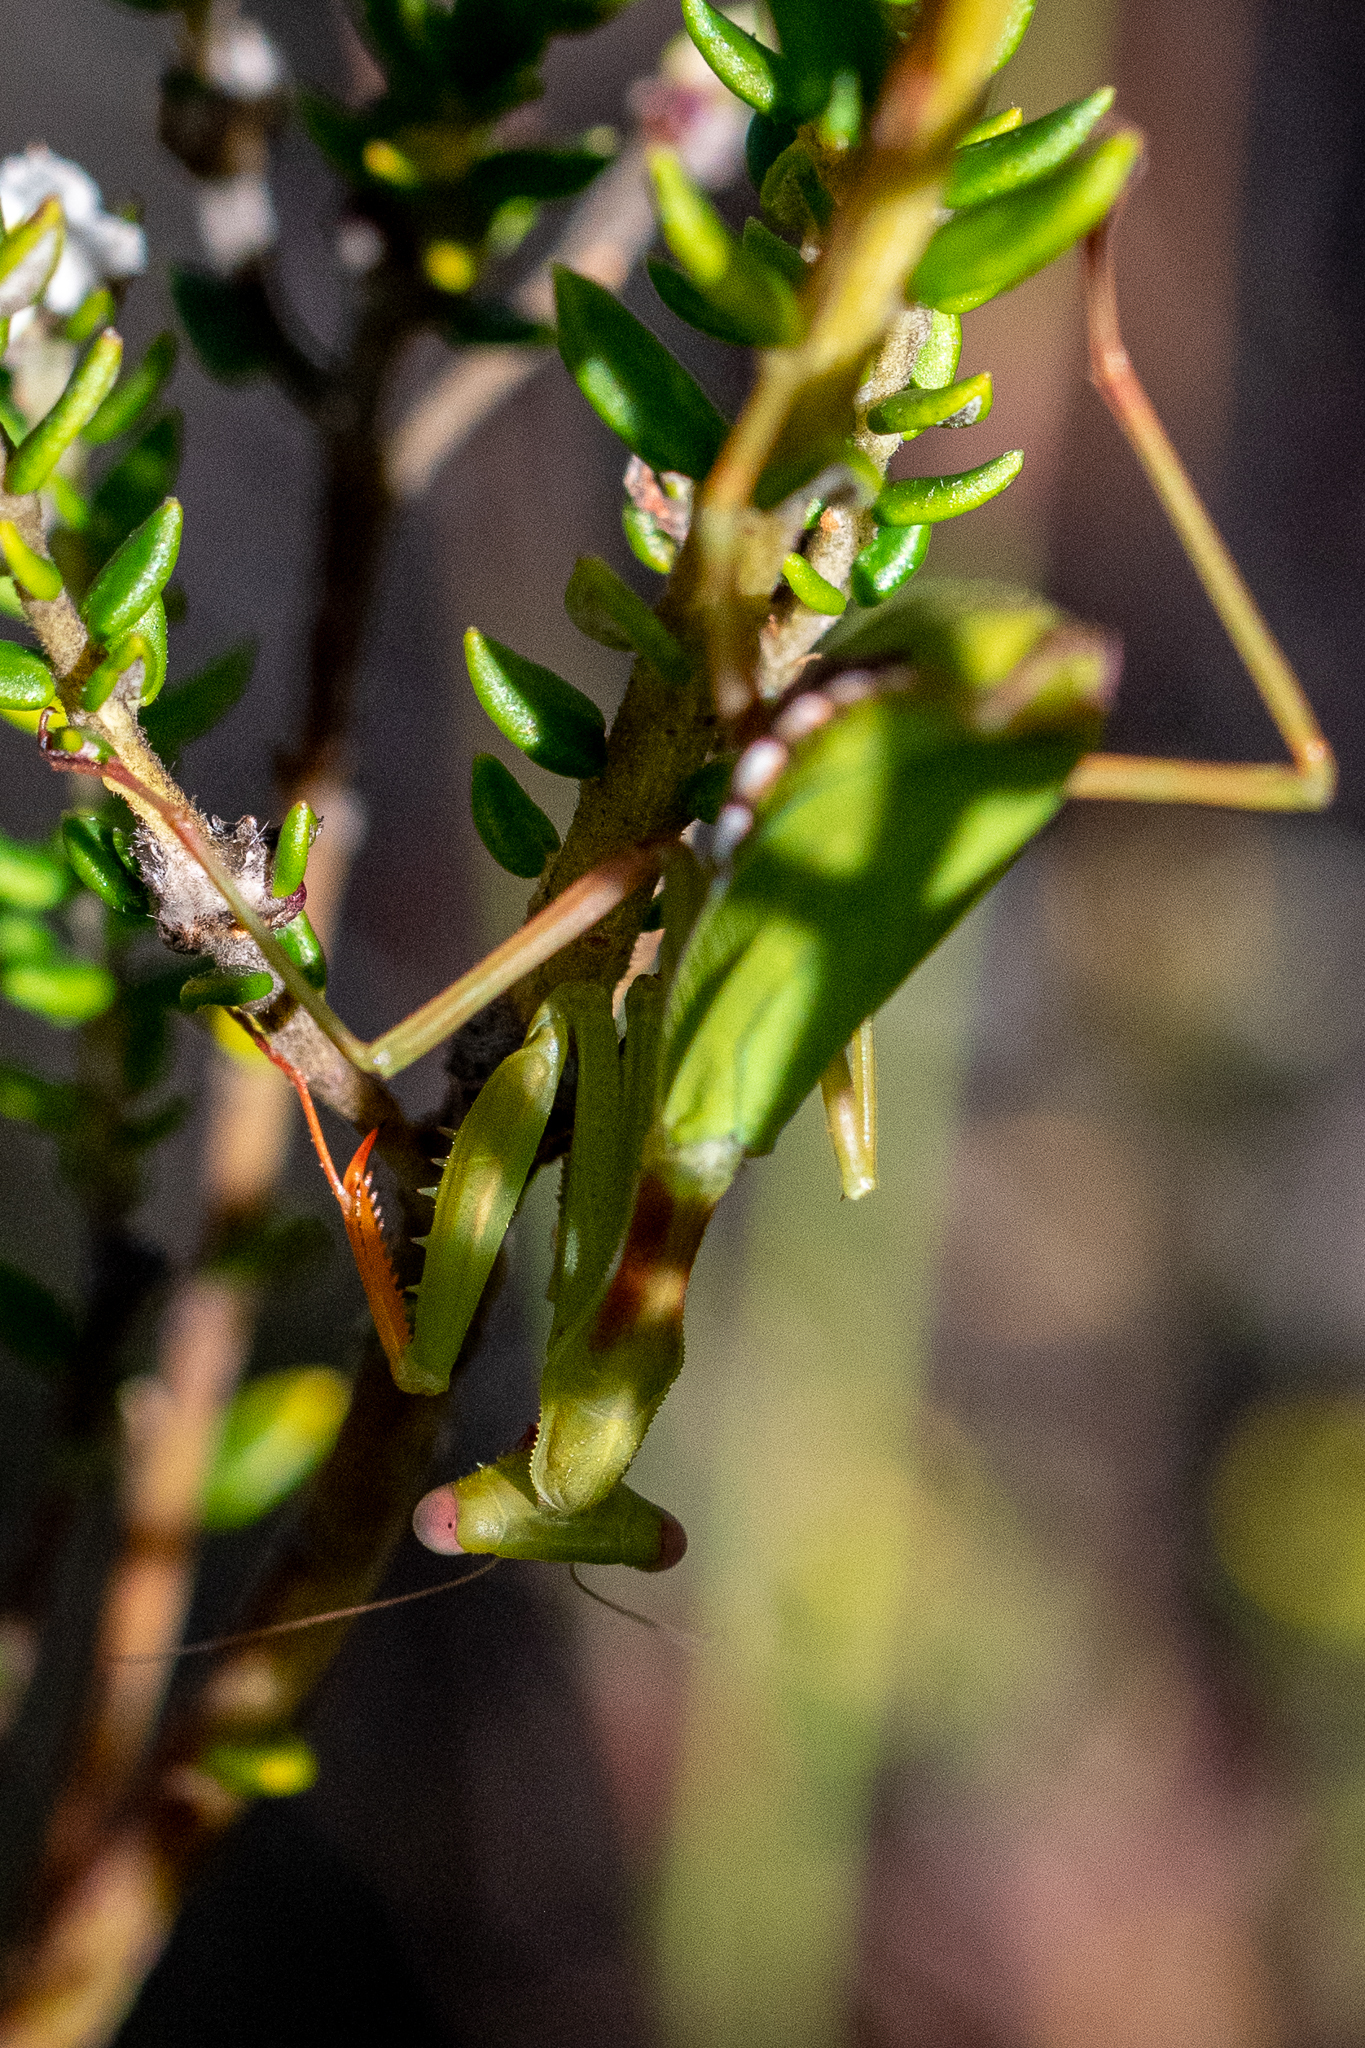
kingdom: Animalia
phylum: Arthropoda
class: Insecta
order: Mantodea
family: Miomantidae
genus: Miomantis
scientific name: Miomantis caffra
